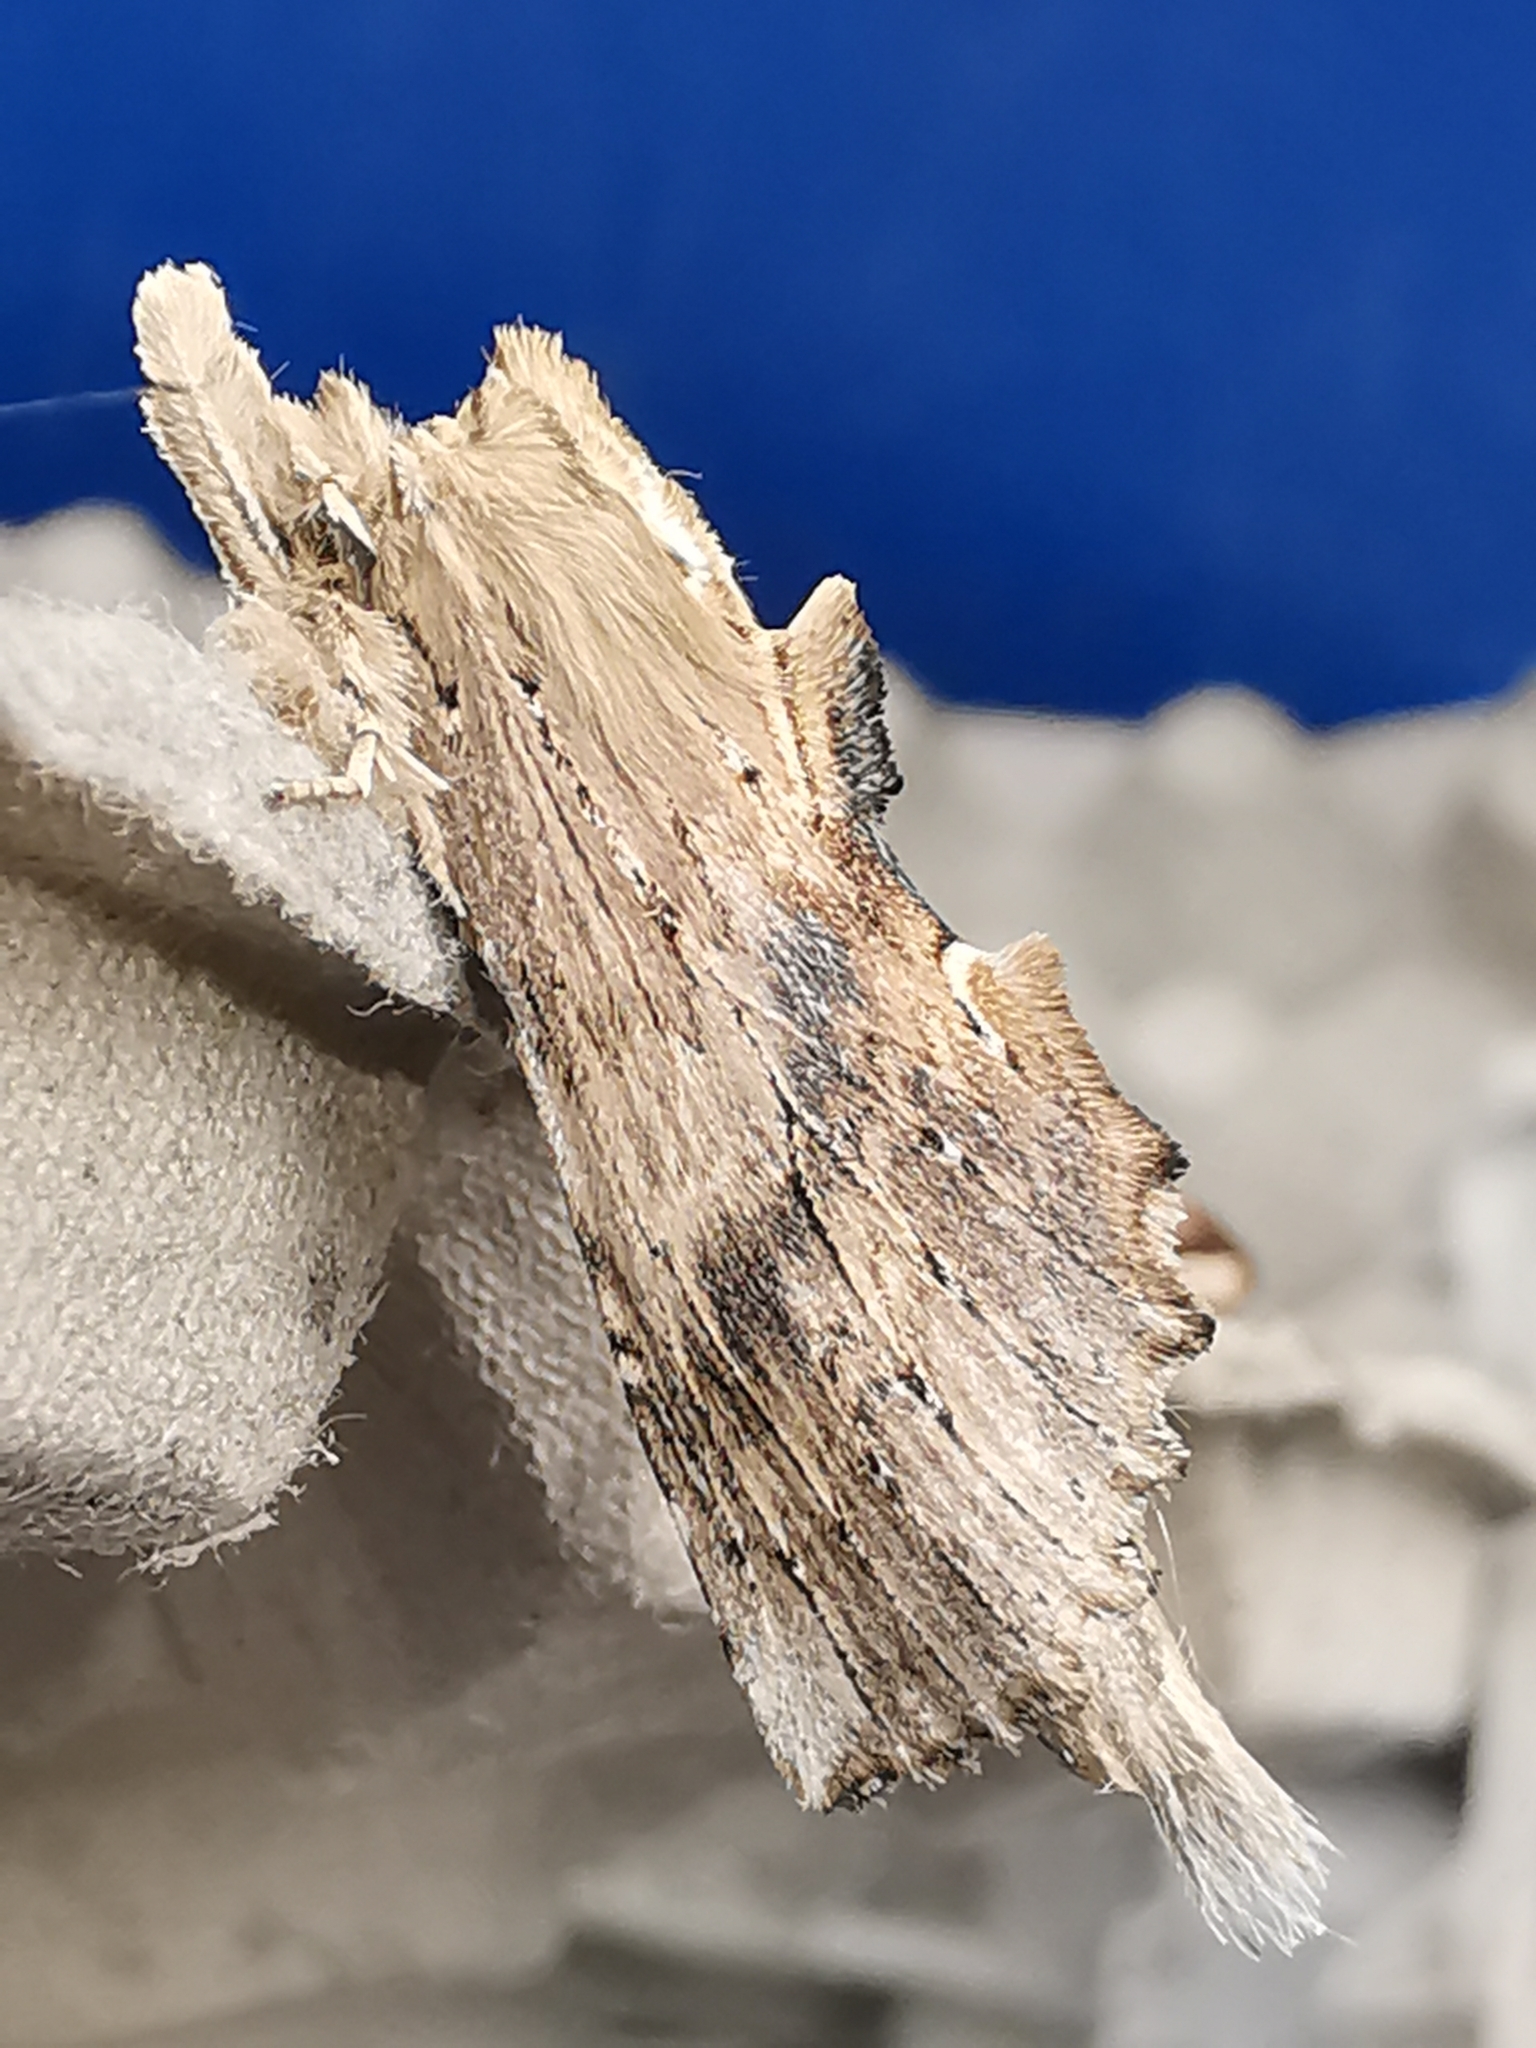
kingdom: Animalia
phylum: Arthropoda
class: Insecta
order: Lepidoptera
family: Notodontidae
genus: Pterostoma
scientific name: Pterostoma palpina
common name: Pale prominent
